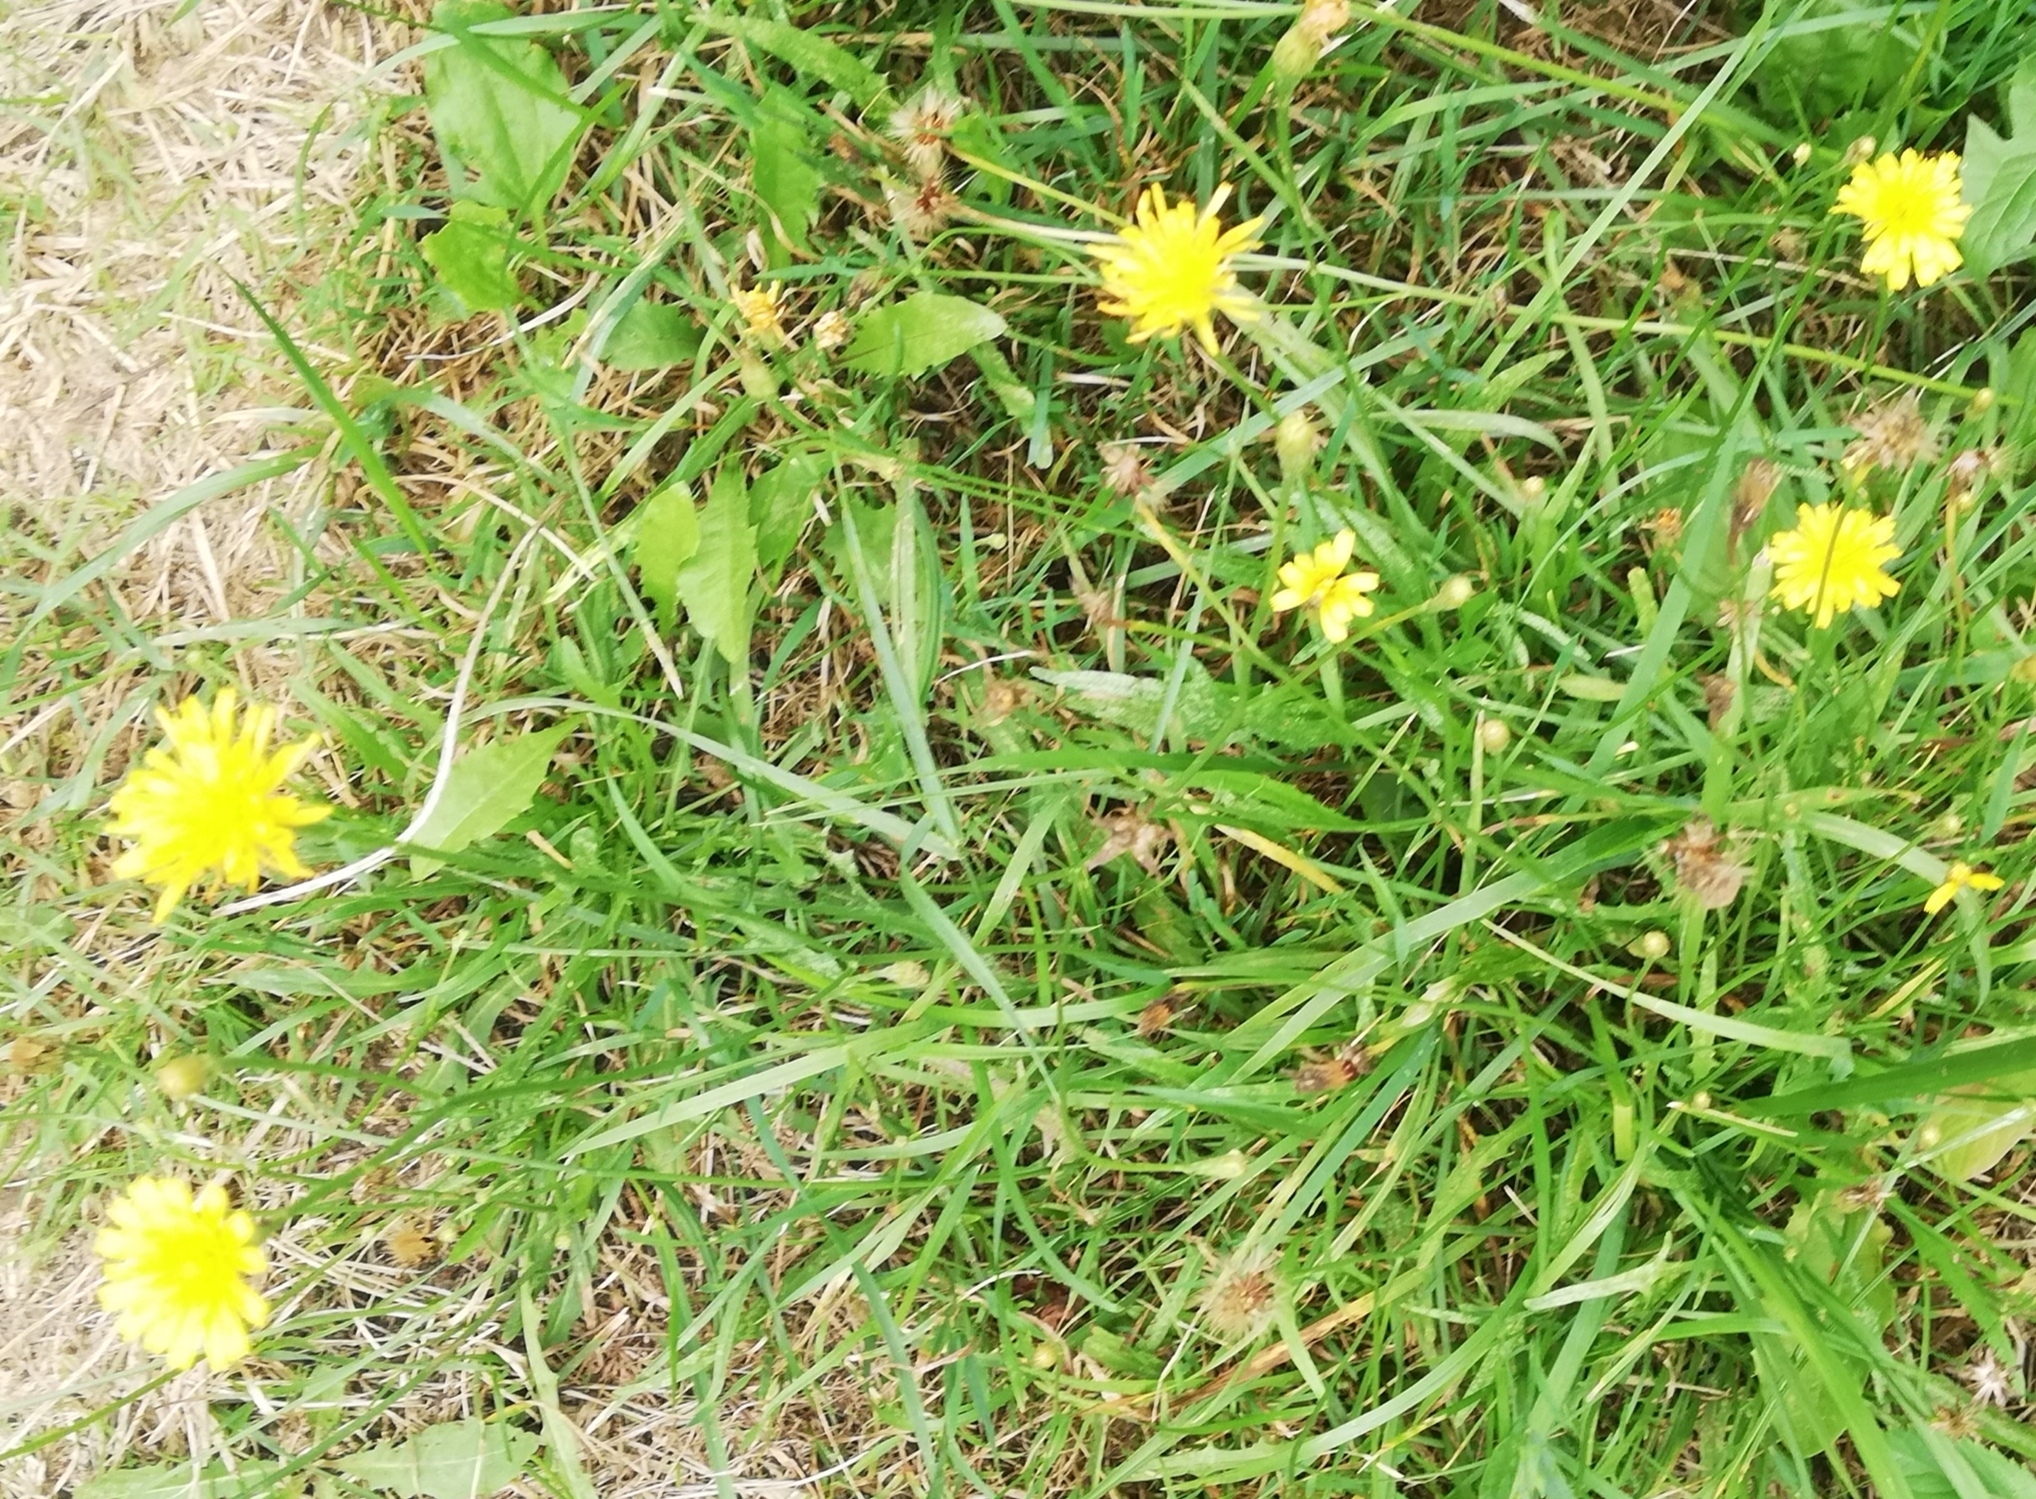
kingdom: Plantae
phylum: Tracheophyta
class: Magnoliopsida
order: Asterales
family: Asteraceae
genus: Scorzoneroides
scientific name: Scorzoneroides autumnalis
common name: Autumn hawkbit
